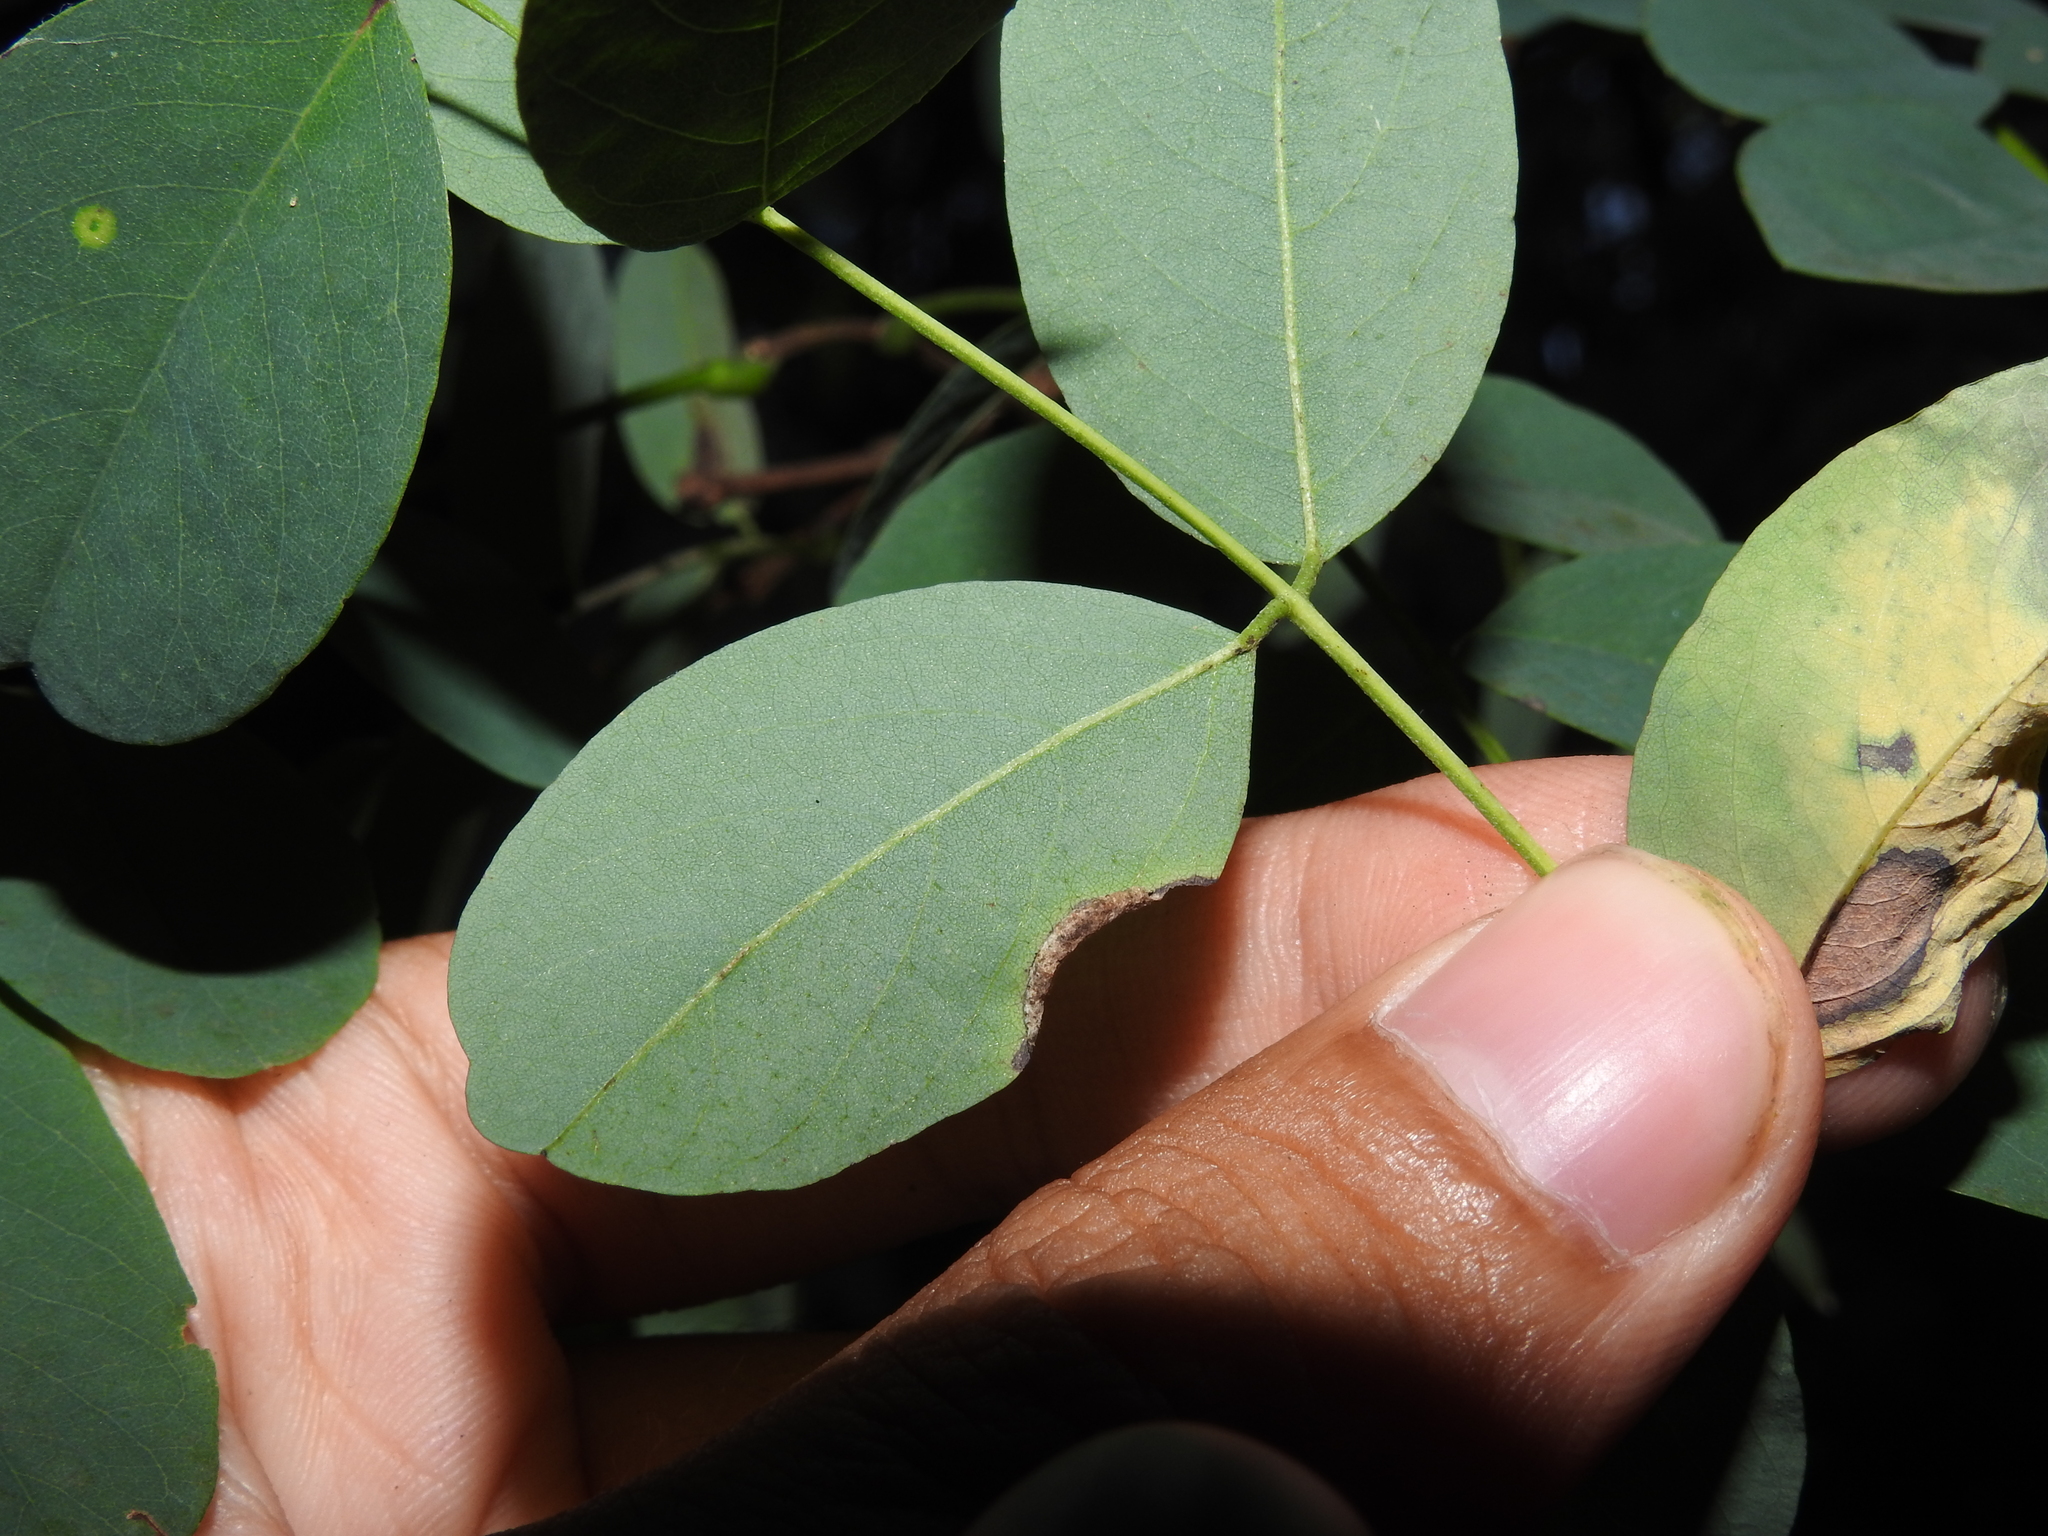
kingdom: Animalia
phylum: Arthropoda
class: Insecta
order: Diptera
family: Cecidomyiidae
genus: Obolodiplosis
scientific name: Obolodiplosis robiniae
